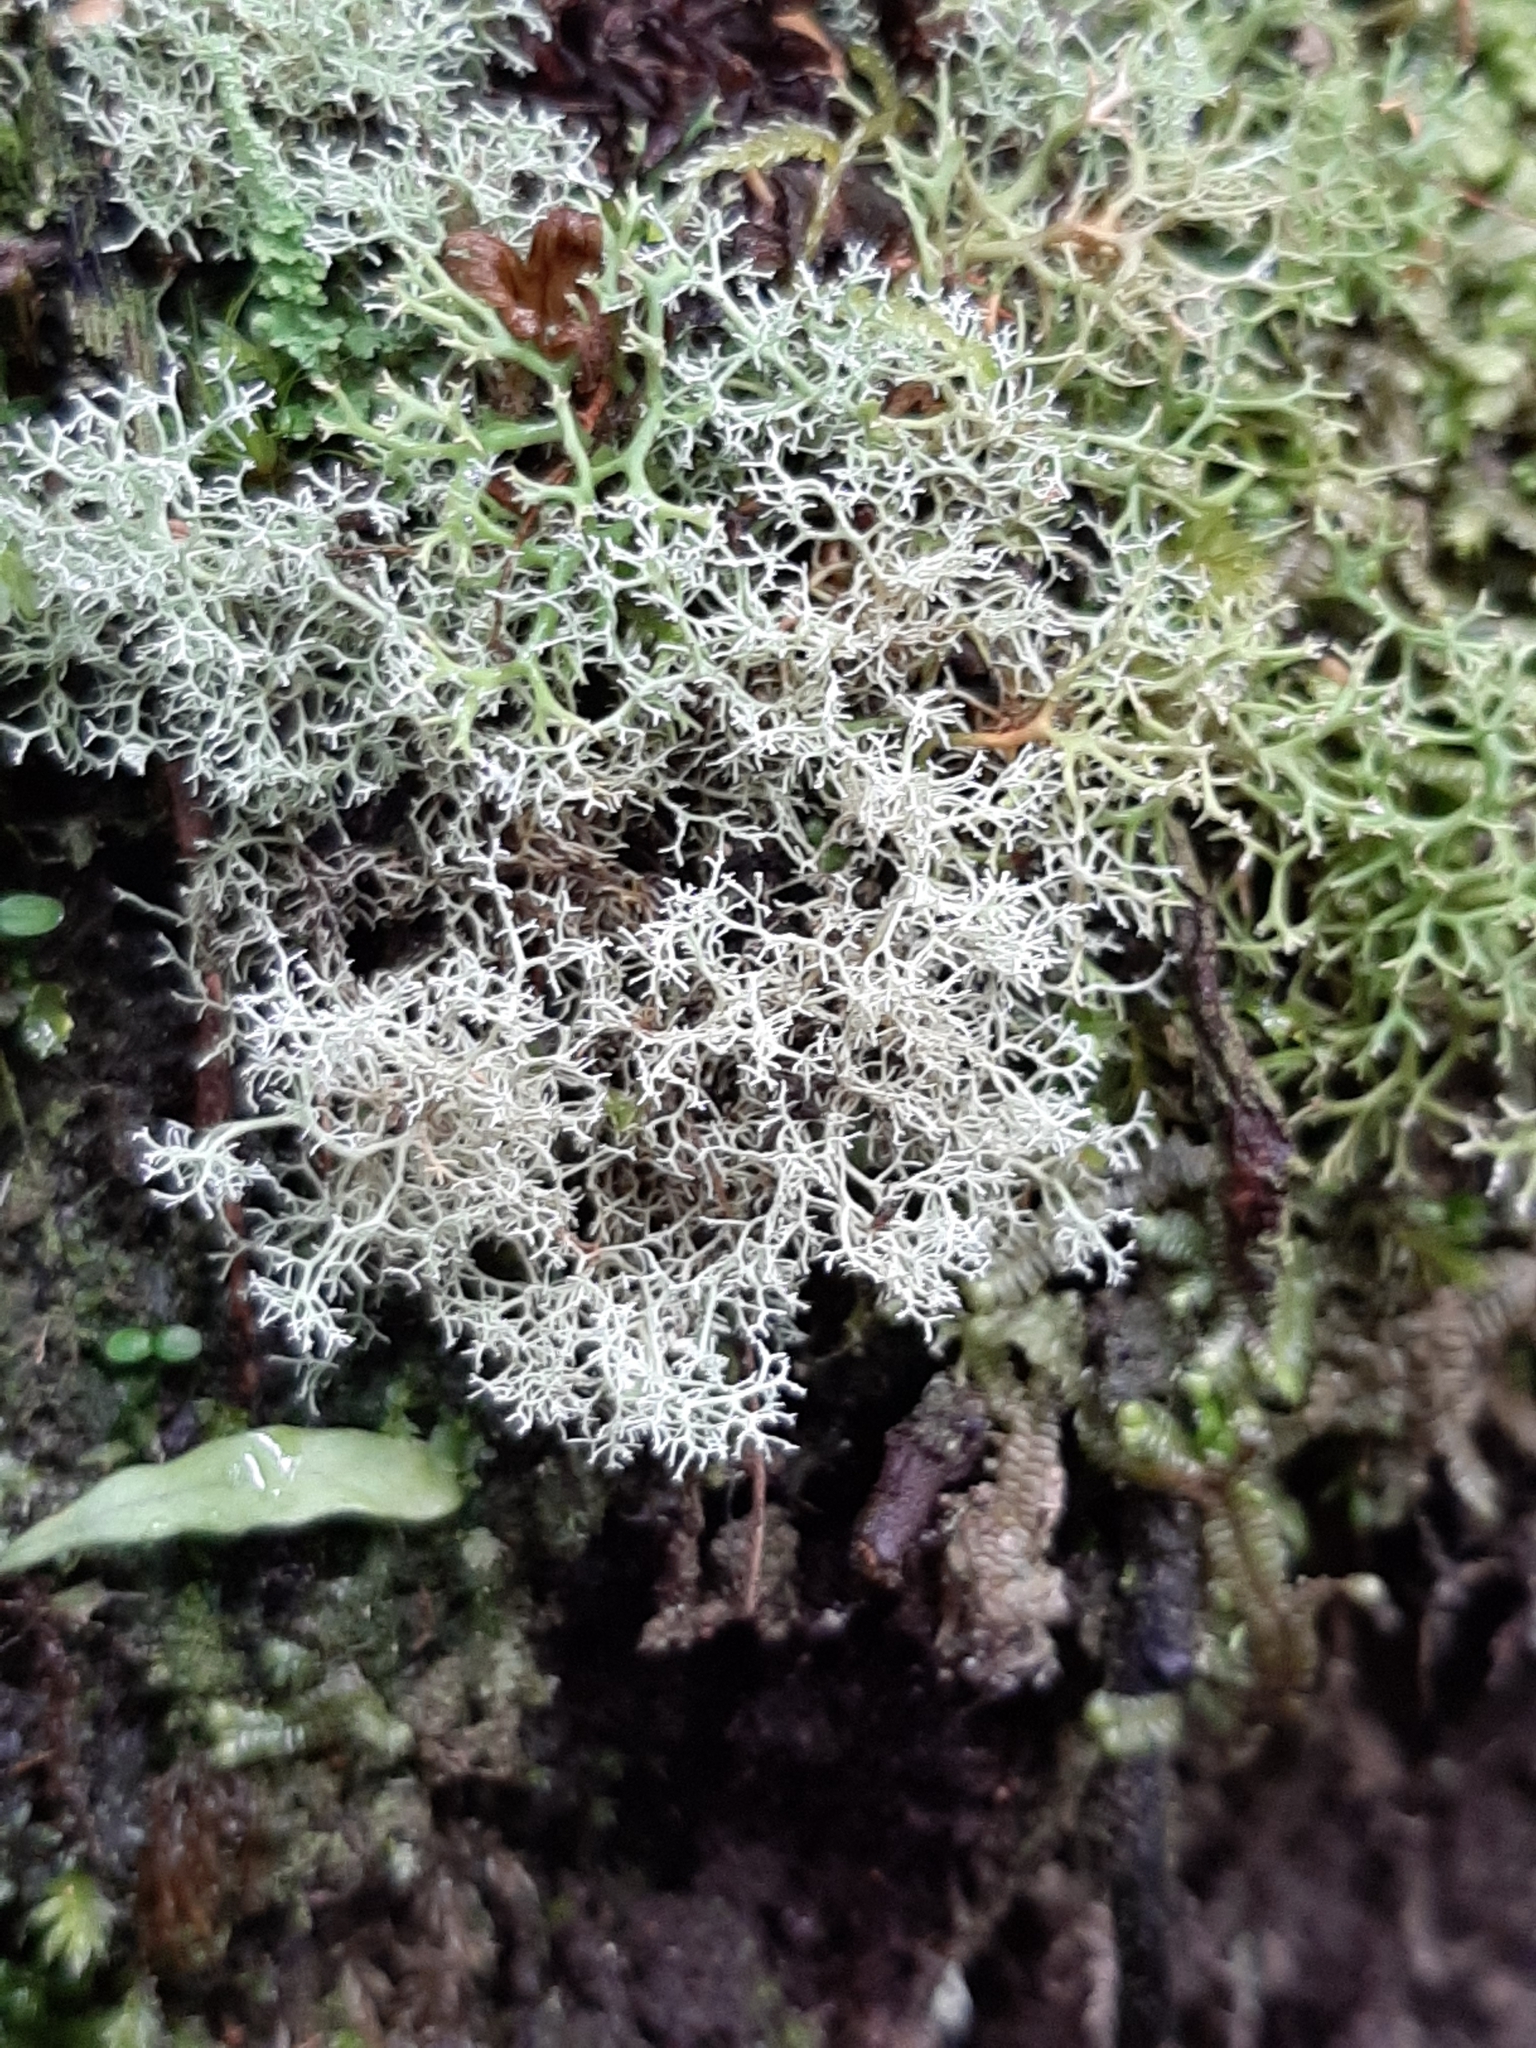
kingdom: Fungi
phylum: Ascomycota
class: Lecanoromycetes
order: Lecanorales
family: Sphaerophoraceae
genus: Leifidium
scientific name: Leifidium tenerum
